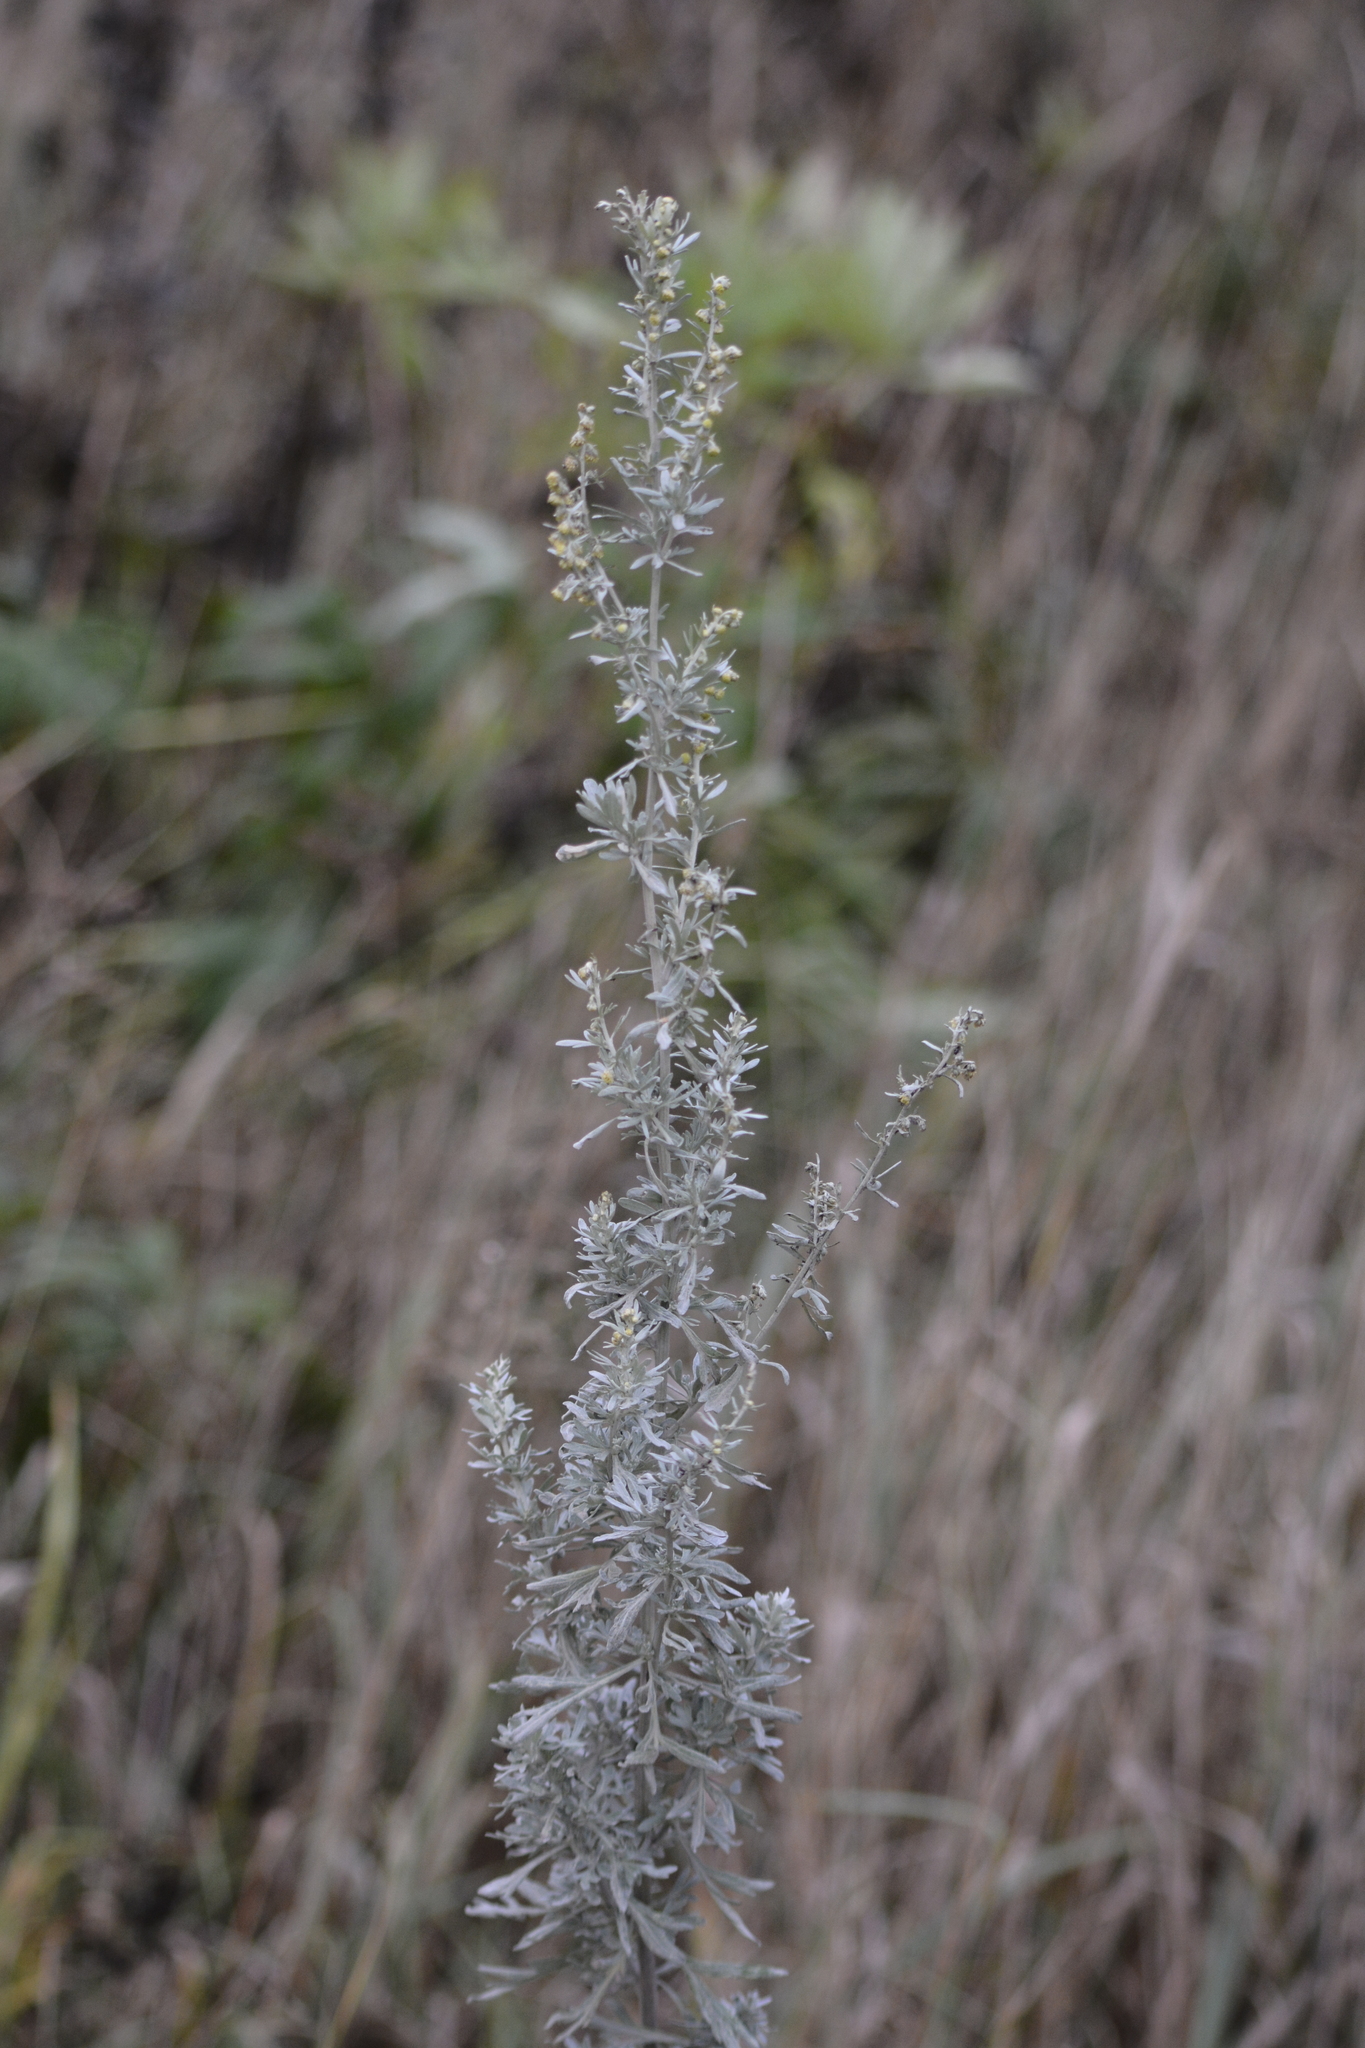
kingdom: Plantae
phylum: Tracheophyta
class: Magnoliopsida
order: Asterales
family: Asteraceae
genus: Artemisia
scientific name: Artemisia absinthium
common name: Wormwood
